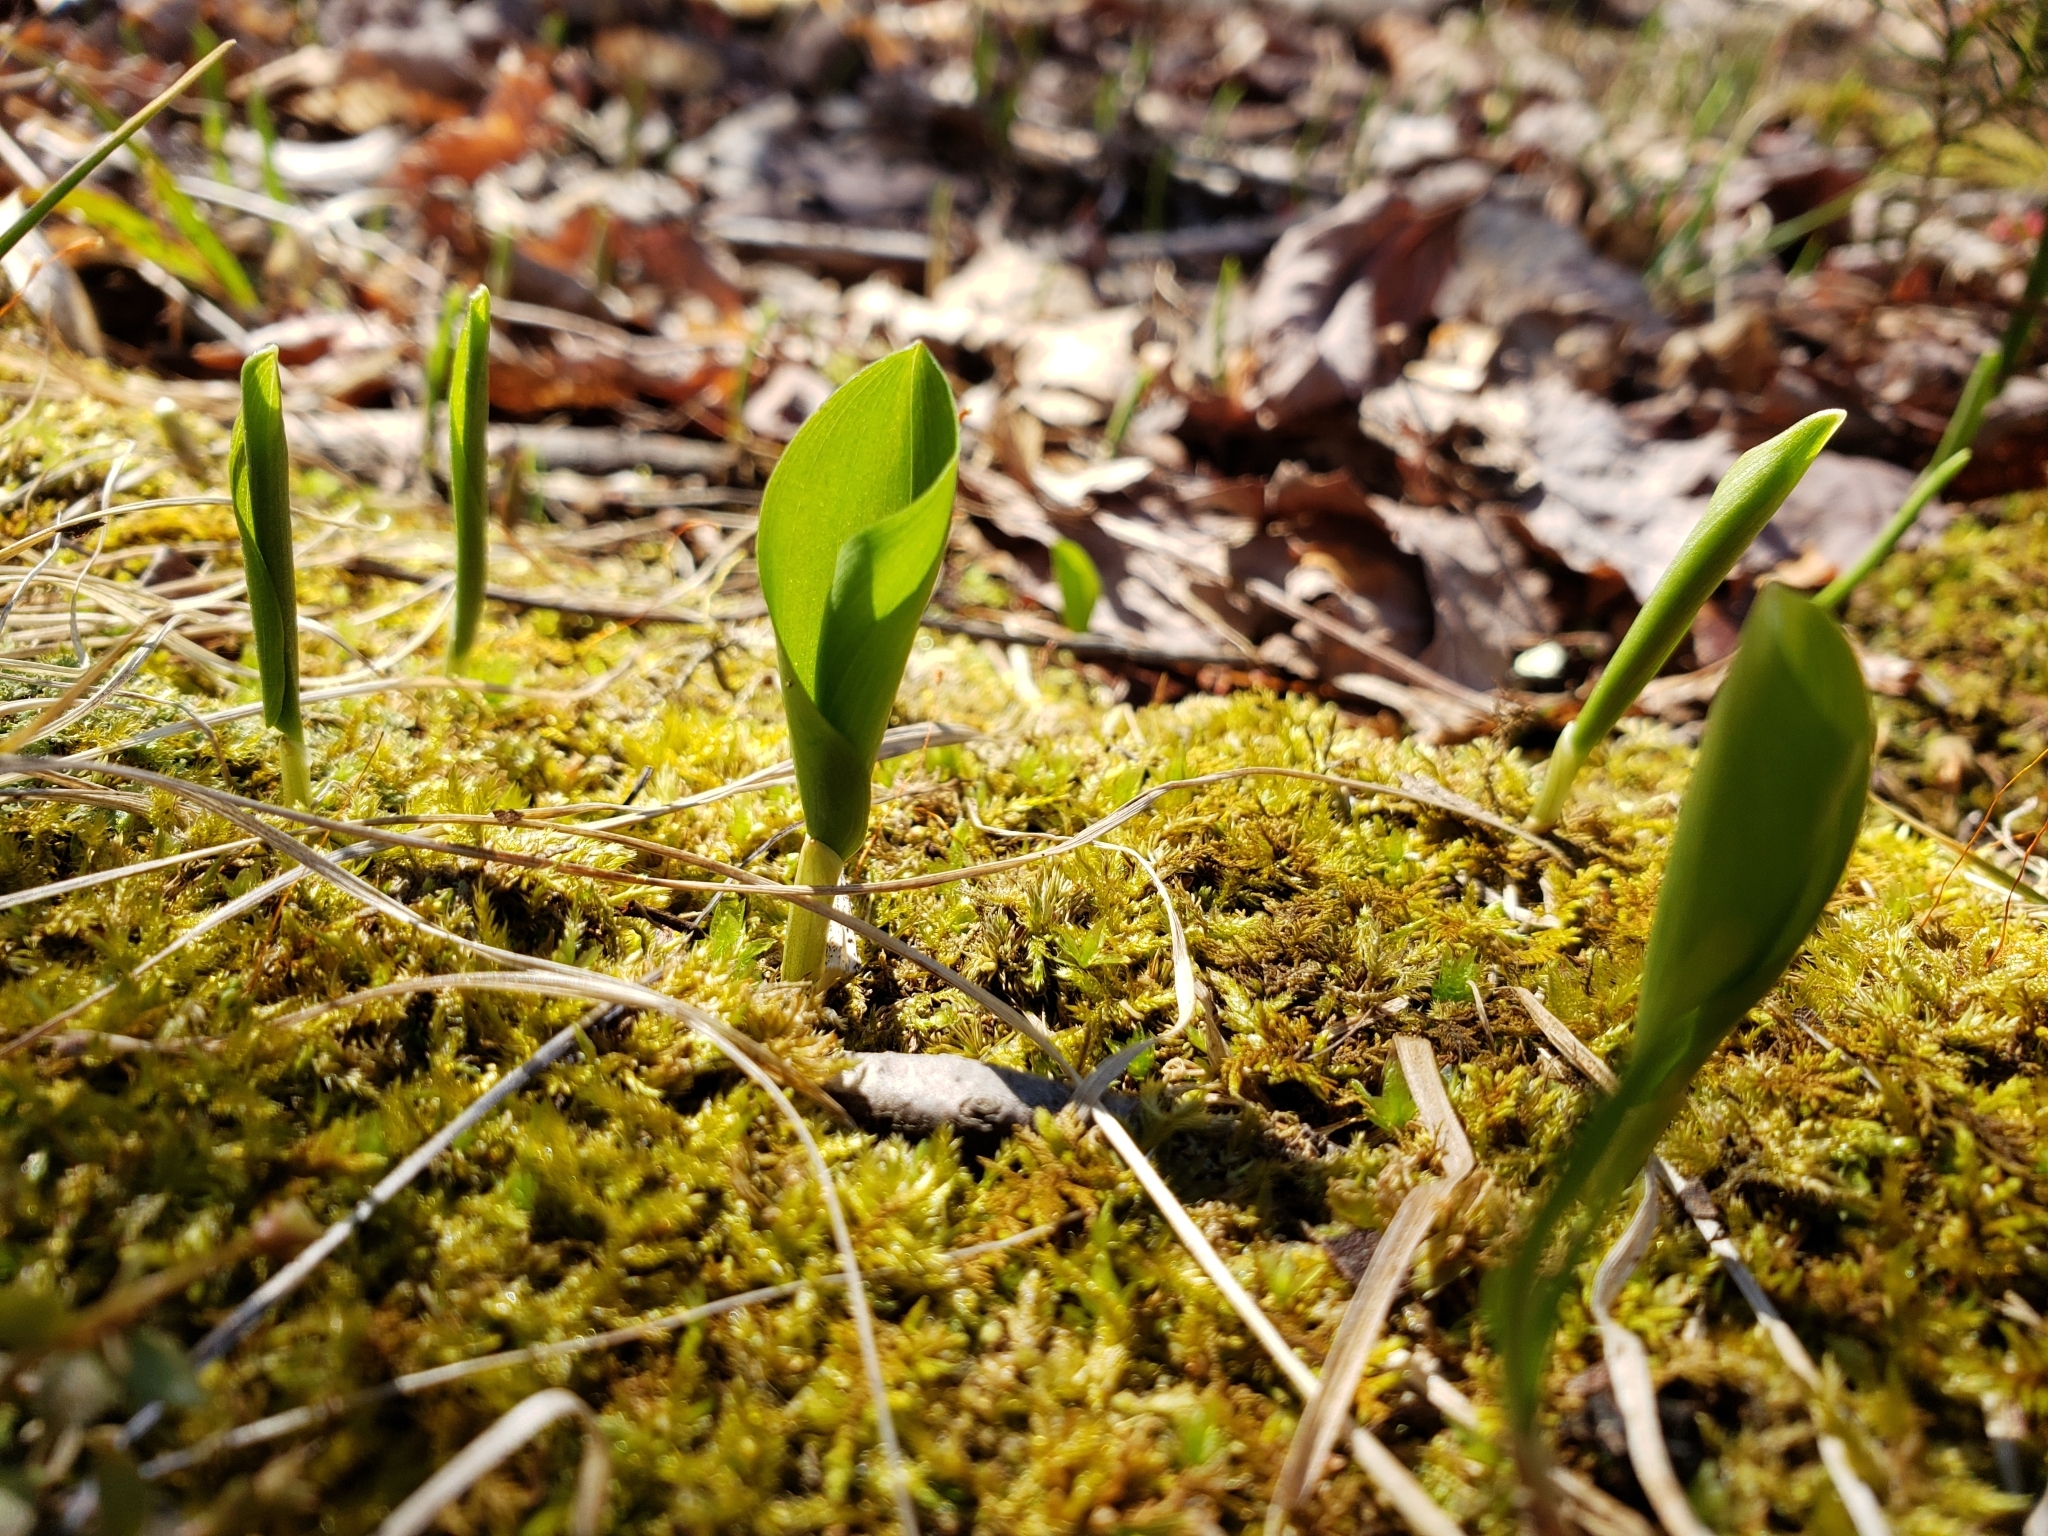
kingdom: Plantae
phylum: Tracheophyta
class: Liliopsida
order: Asparagales
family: Asparagaceae
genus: Maianthemum
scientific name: Maianthemum canadense
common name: False lily-of-the-valley
